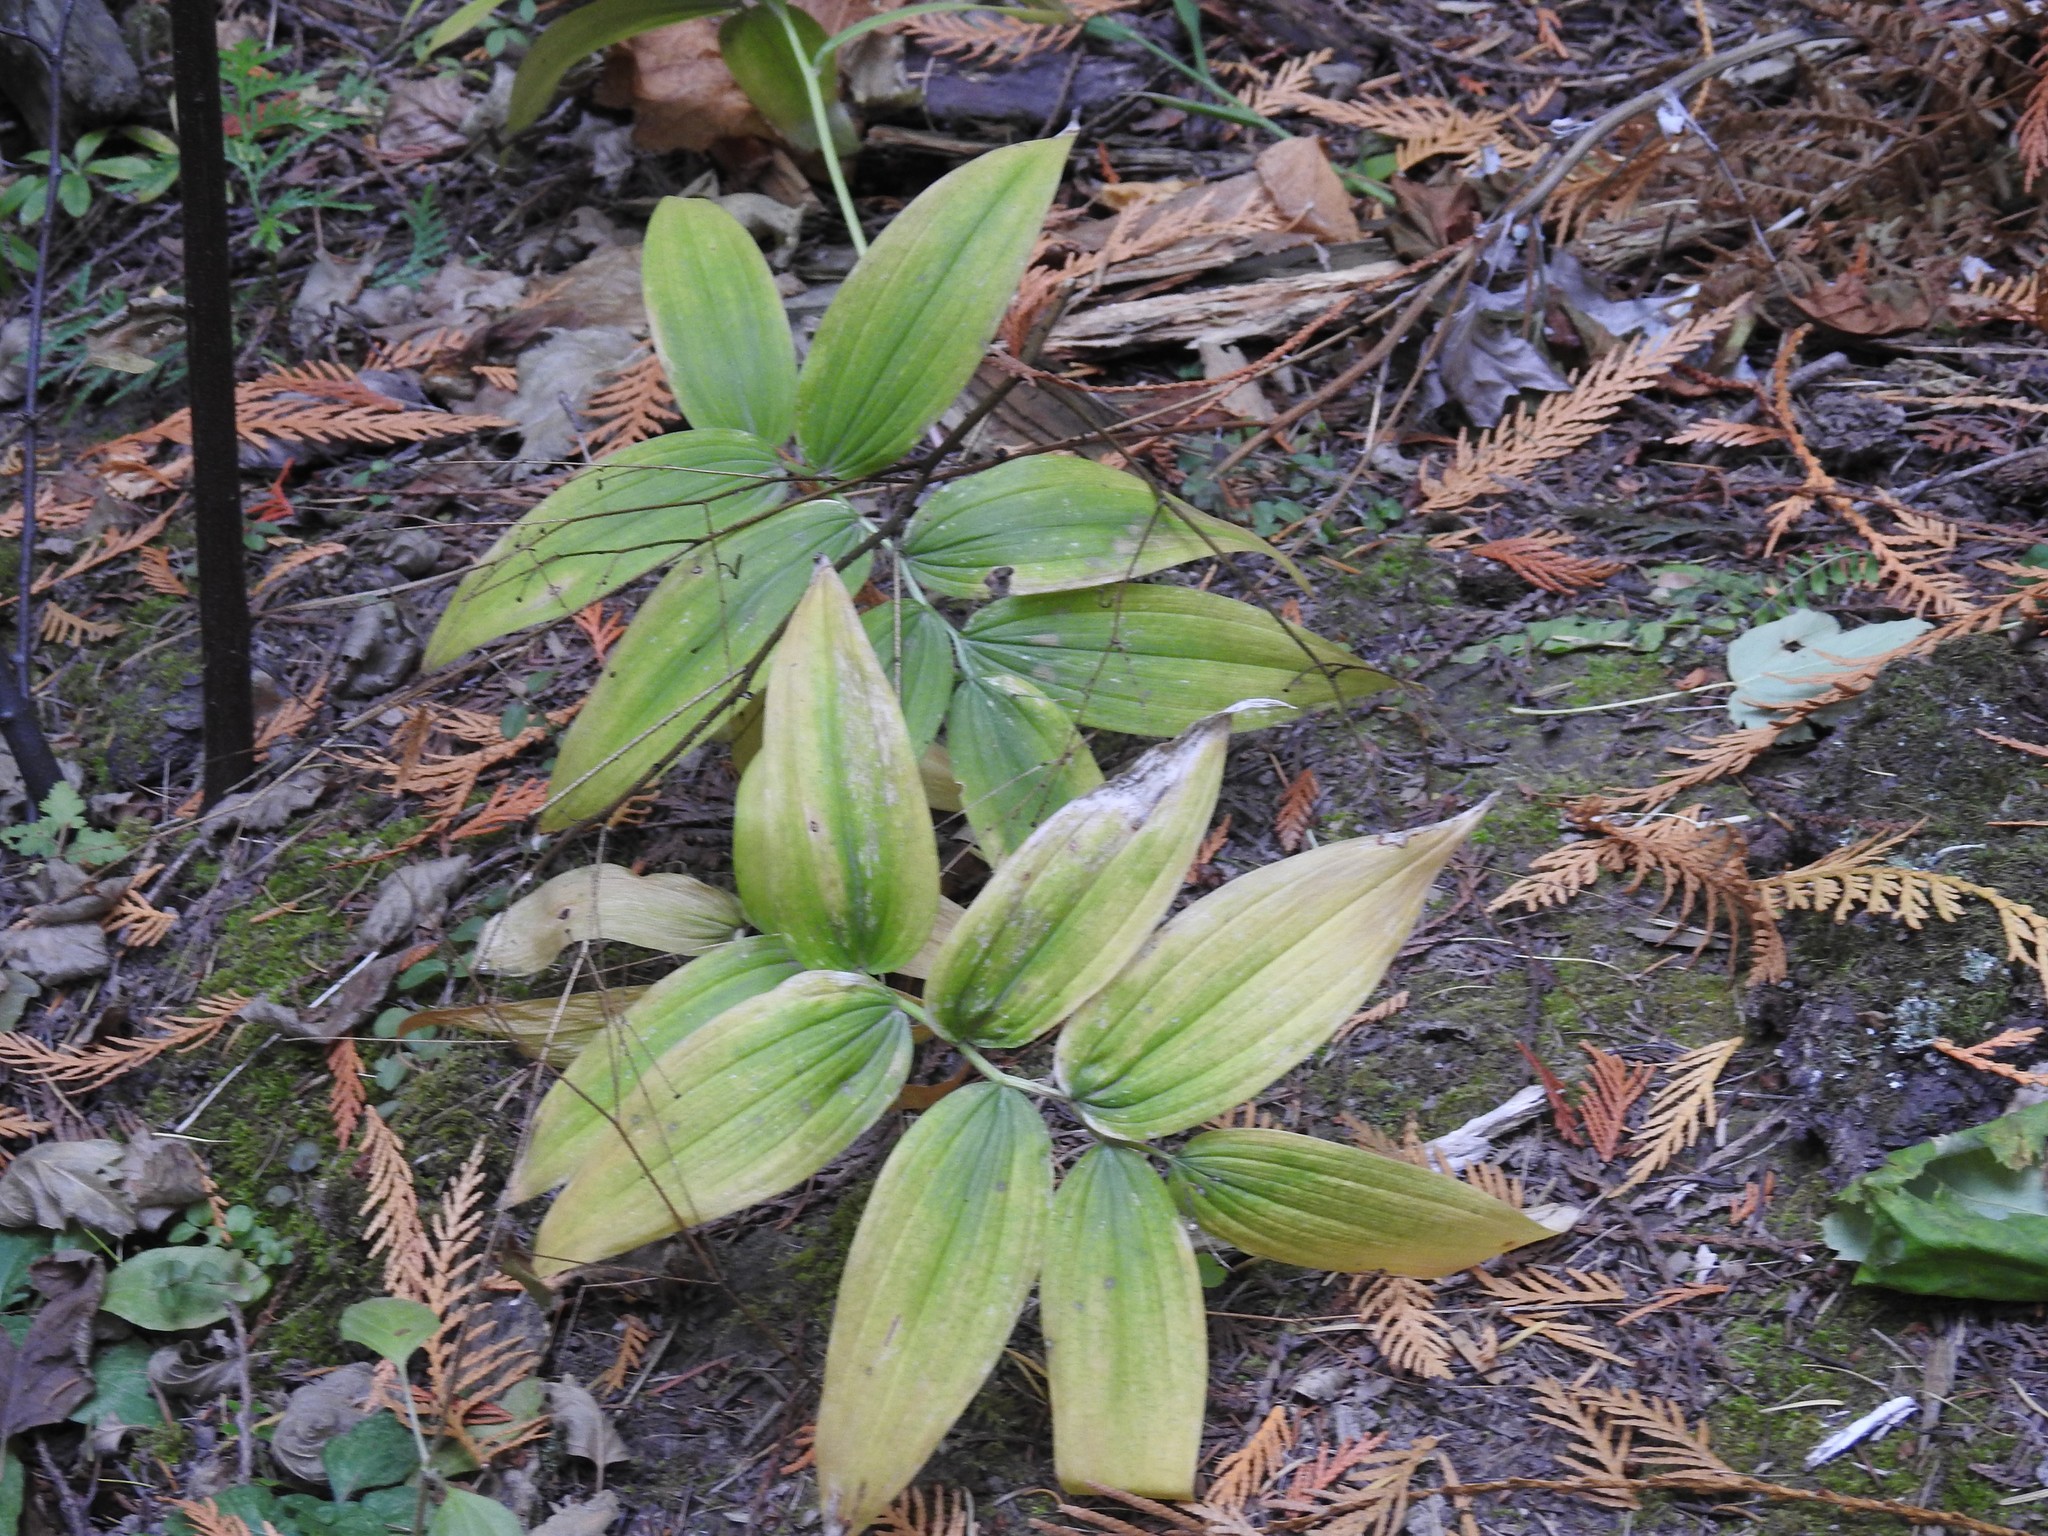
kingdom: Plantae
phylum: Tracheophyta
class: Liliopsida
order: Asparagales
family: Asparagaceae
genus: Maianthemum
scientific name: Maianthemum stellatum
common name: Little false solomon's seal
